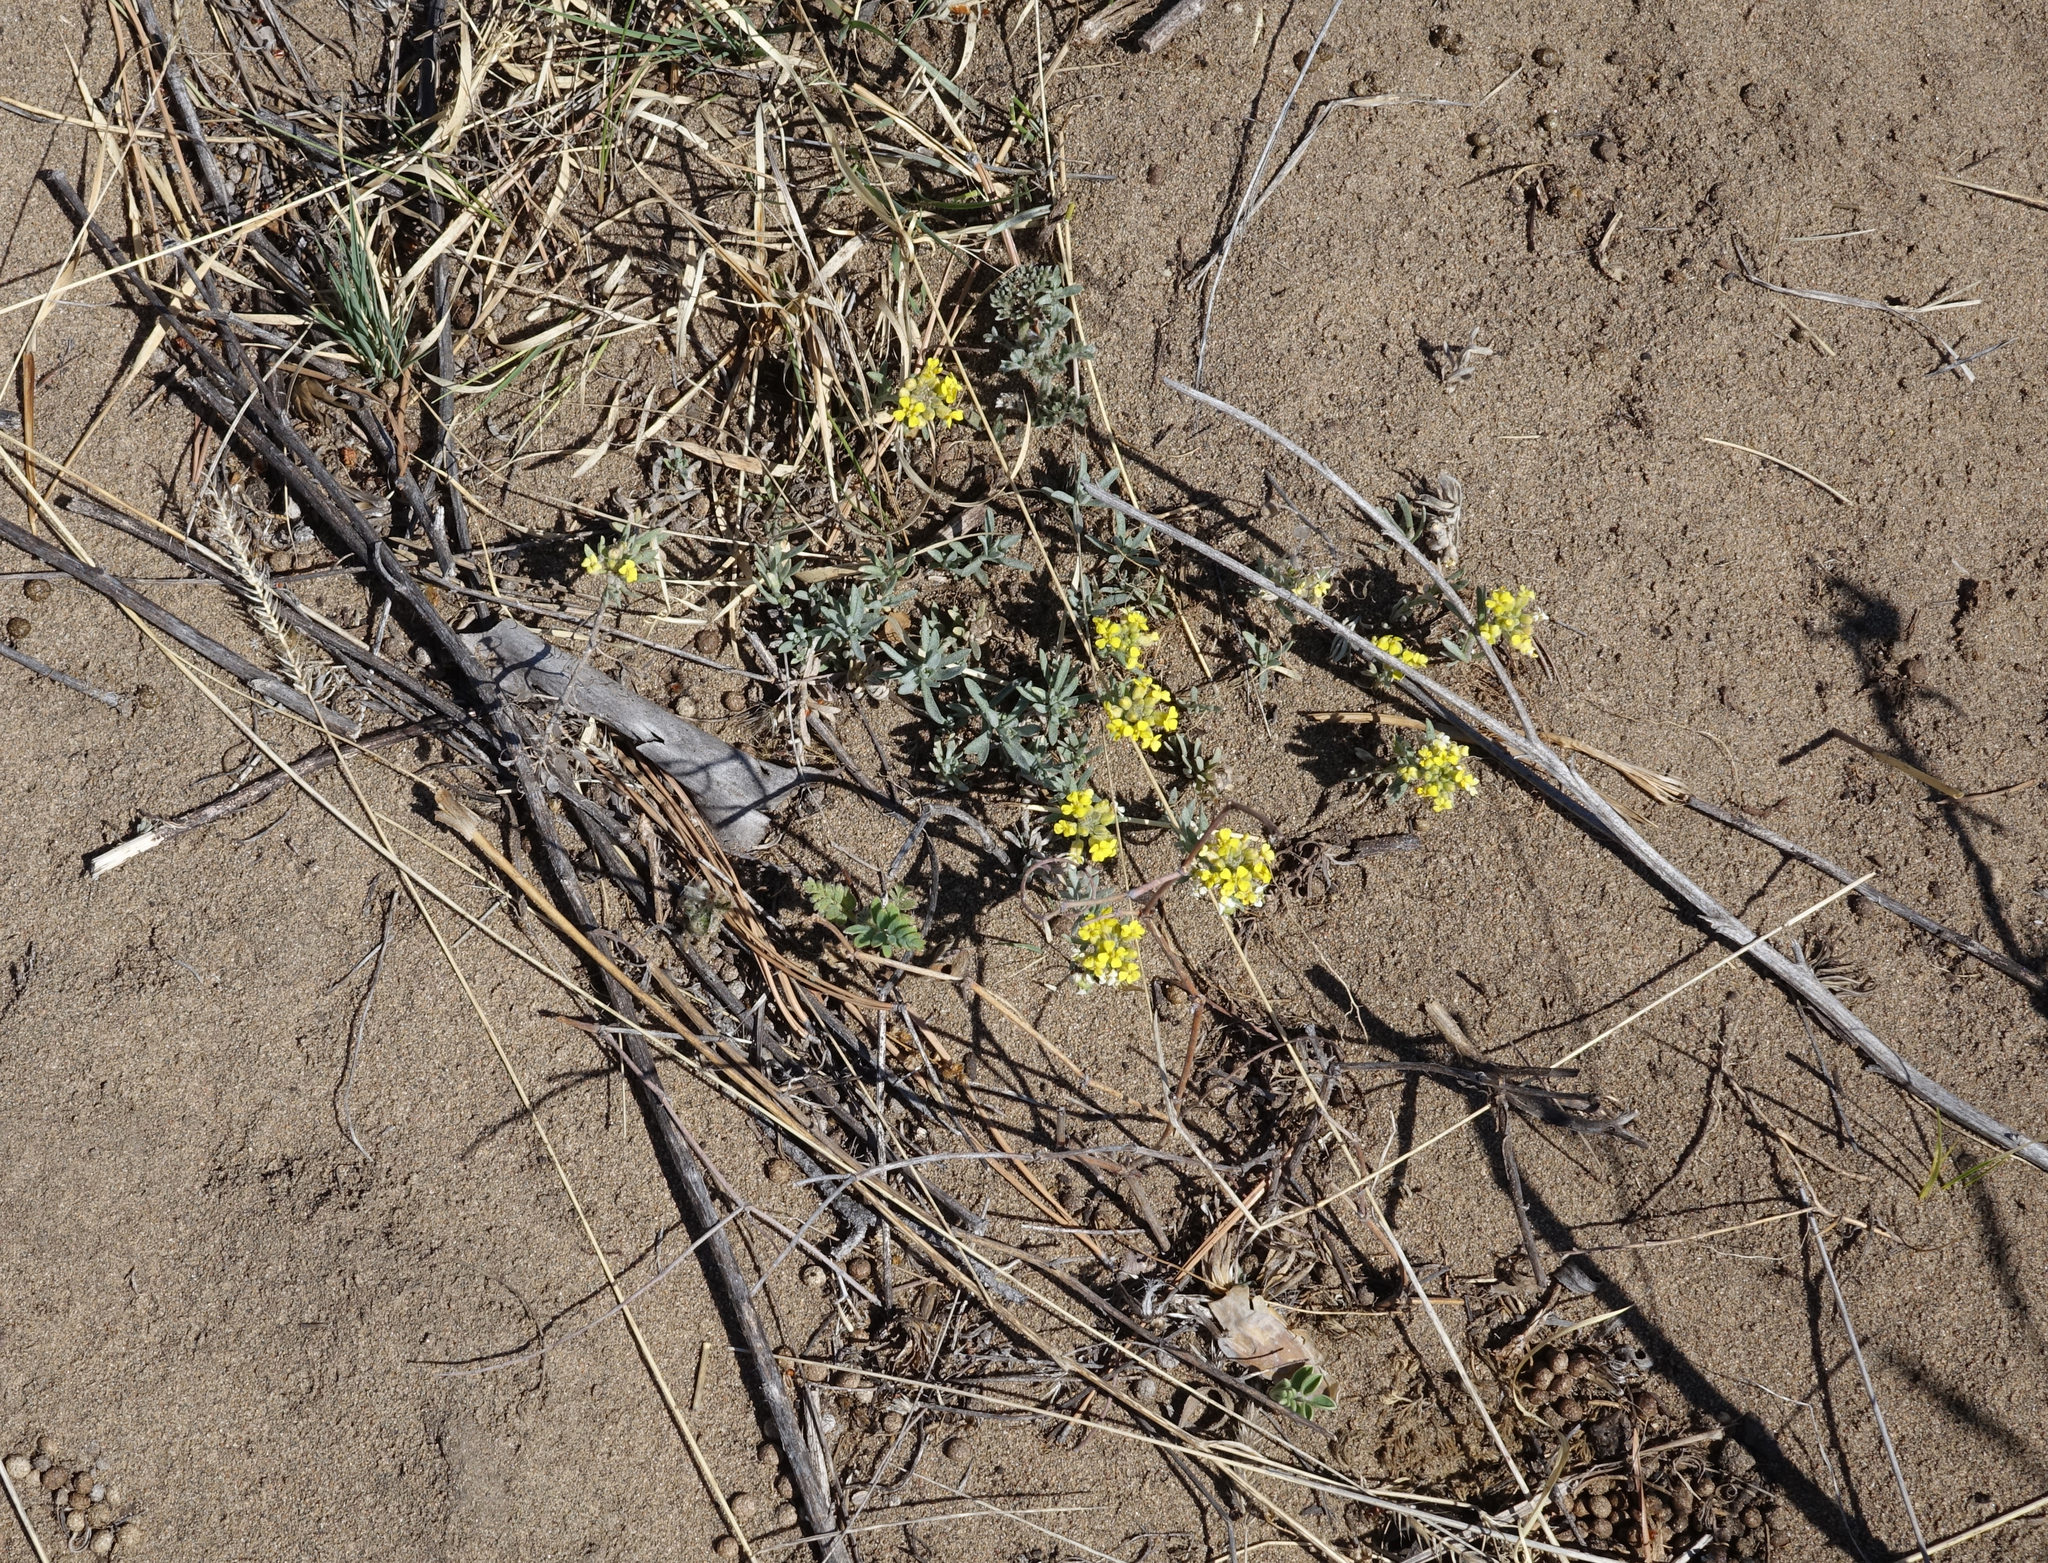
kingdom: Plantae
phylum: Tracheophyta
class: Magnoliopsida
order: Brassicales
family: Brassicaceae
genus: Odontarrhena
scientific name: Odontarrhena obovata
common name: American alyssum
